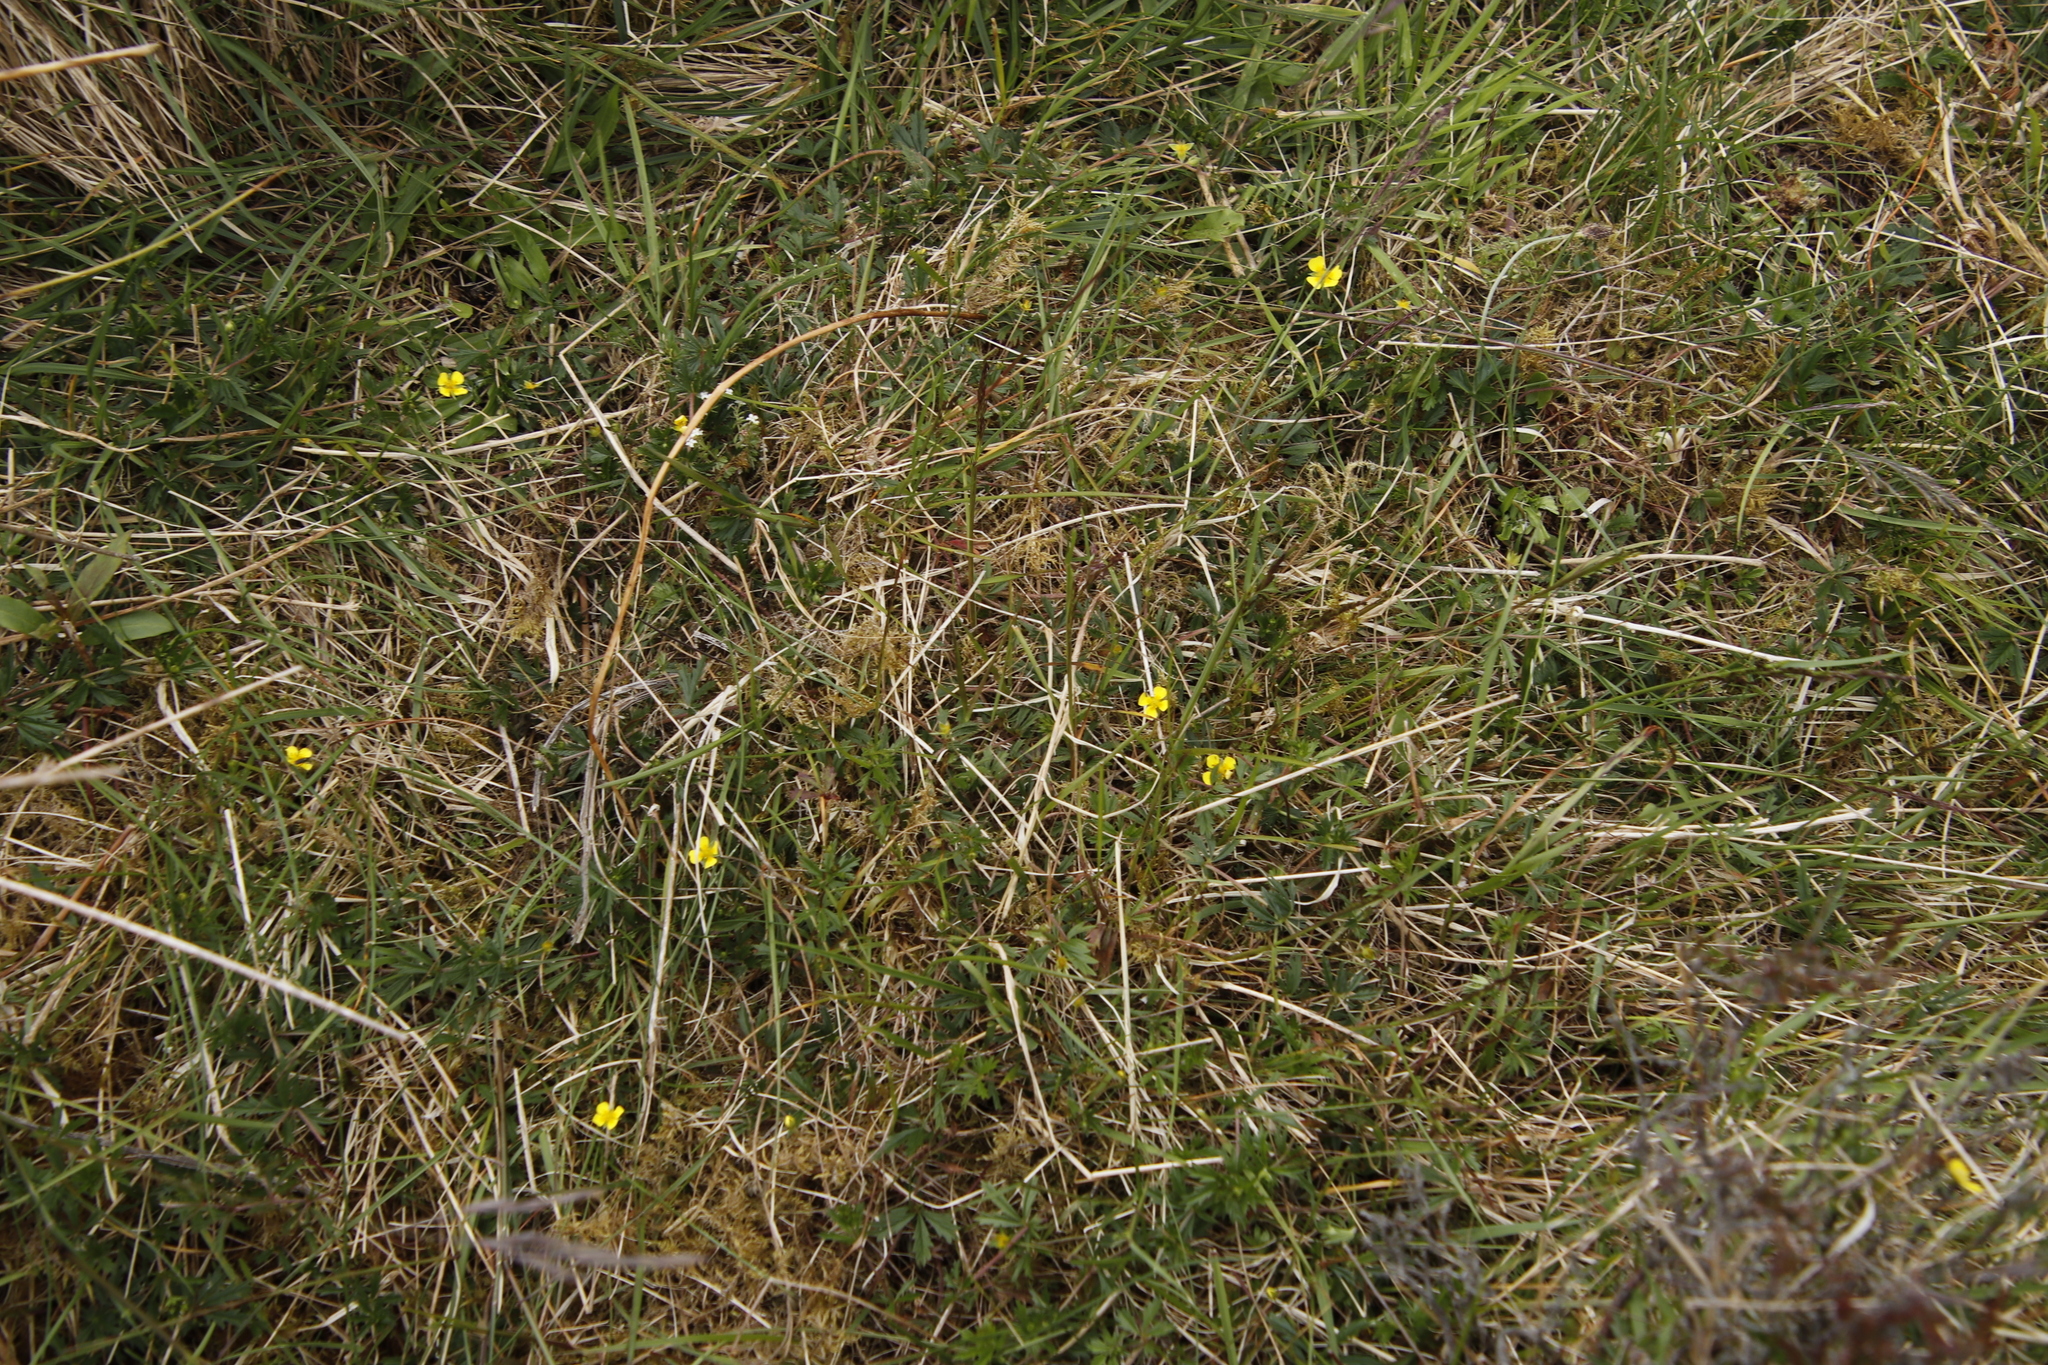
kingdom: Plantae
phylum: Tracheophyta
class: Magnoliopsida
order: Rosales
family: Rosaceae
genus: Potentilla
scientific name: Potentilla erecta
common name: Tormentil
